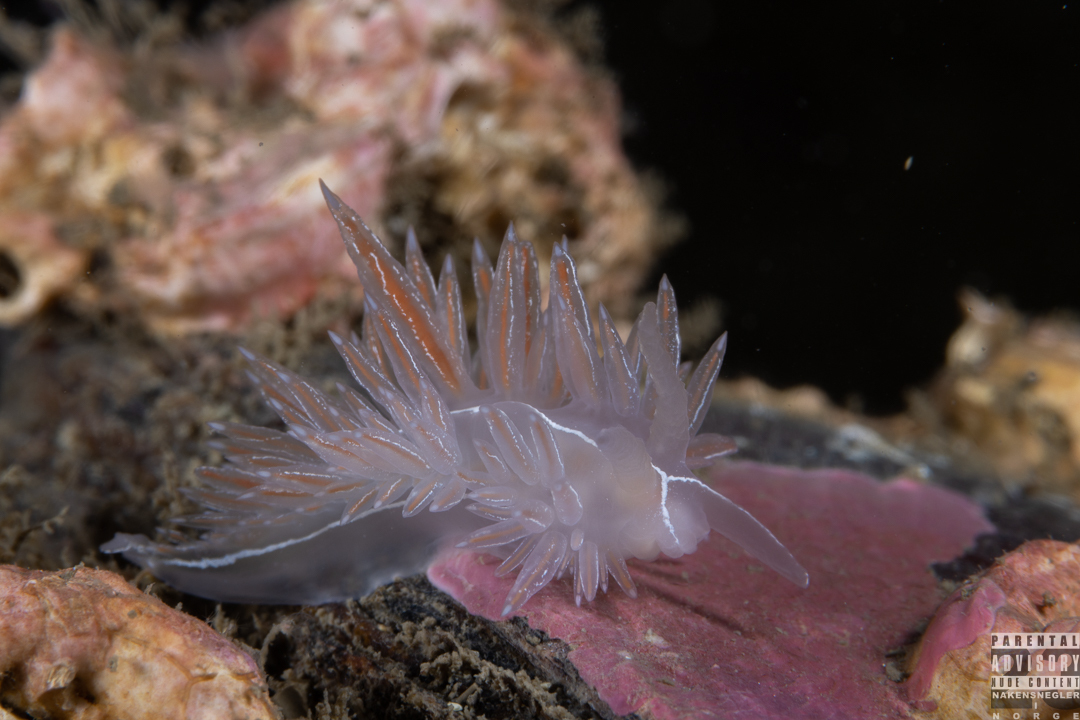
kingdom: Animalia
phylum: Mollusca
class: Gastropoda
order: Nudibranchia
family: Coryphellidae
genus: Coryphella
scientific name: Coryphella chriskaugei
